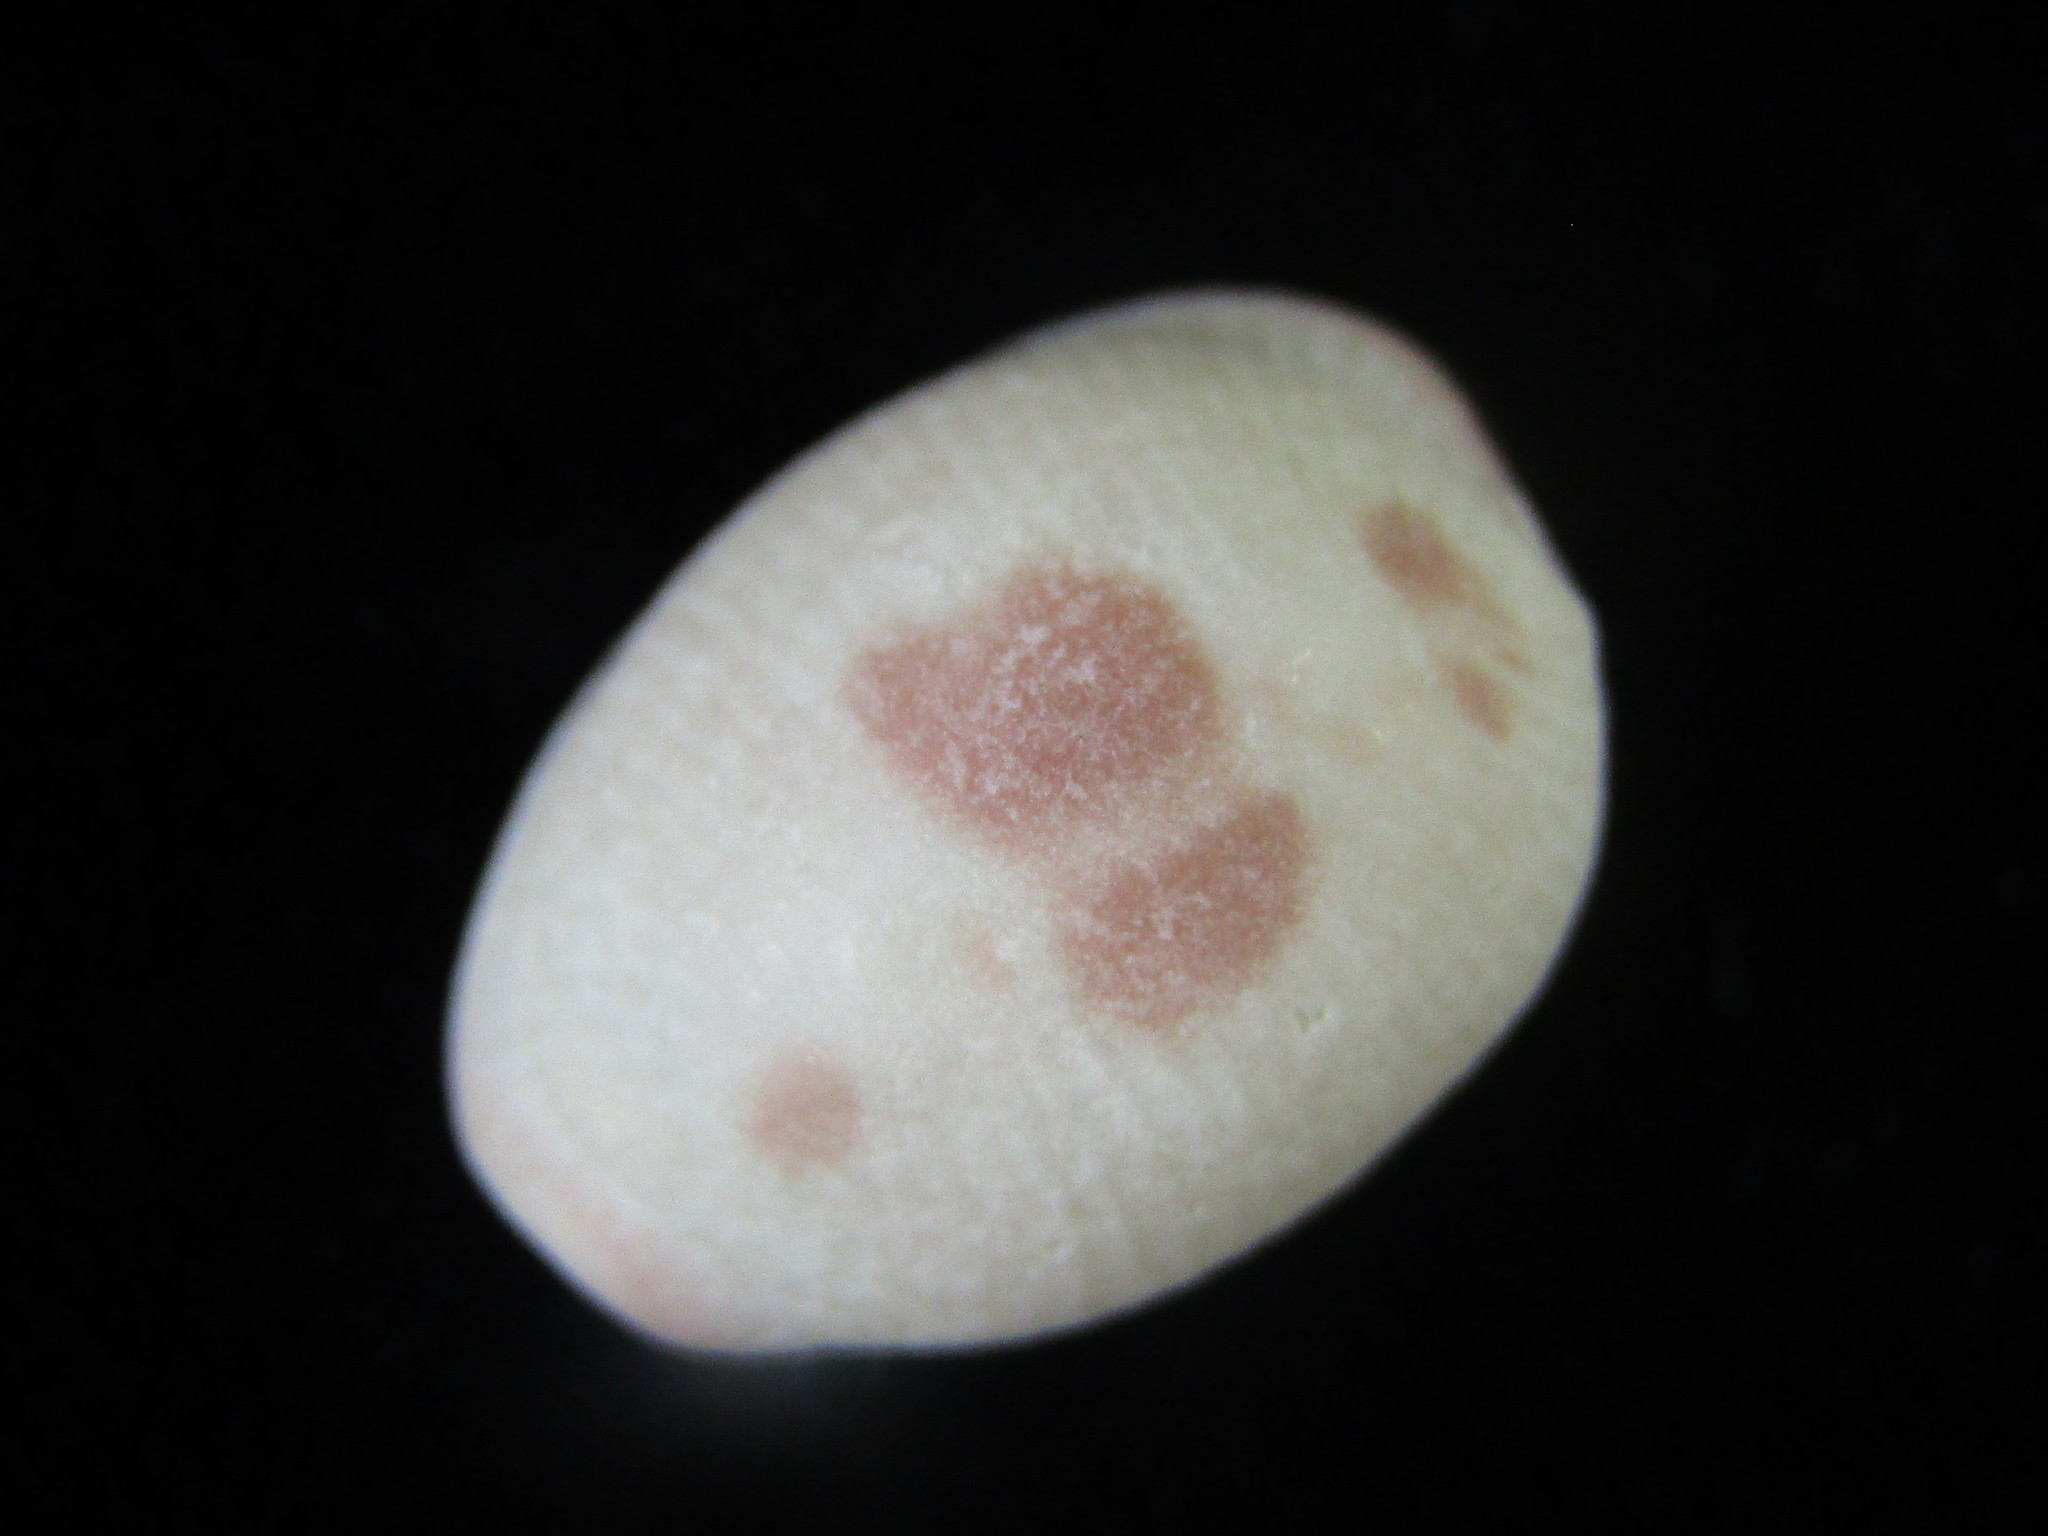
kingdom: Animalia
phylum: Mollusca
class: Gastropoda
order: Littorinimorpha
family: Triviidae
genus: Ellatrivia
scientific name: Ellatrivia merces
